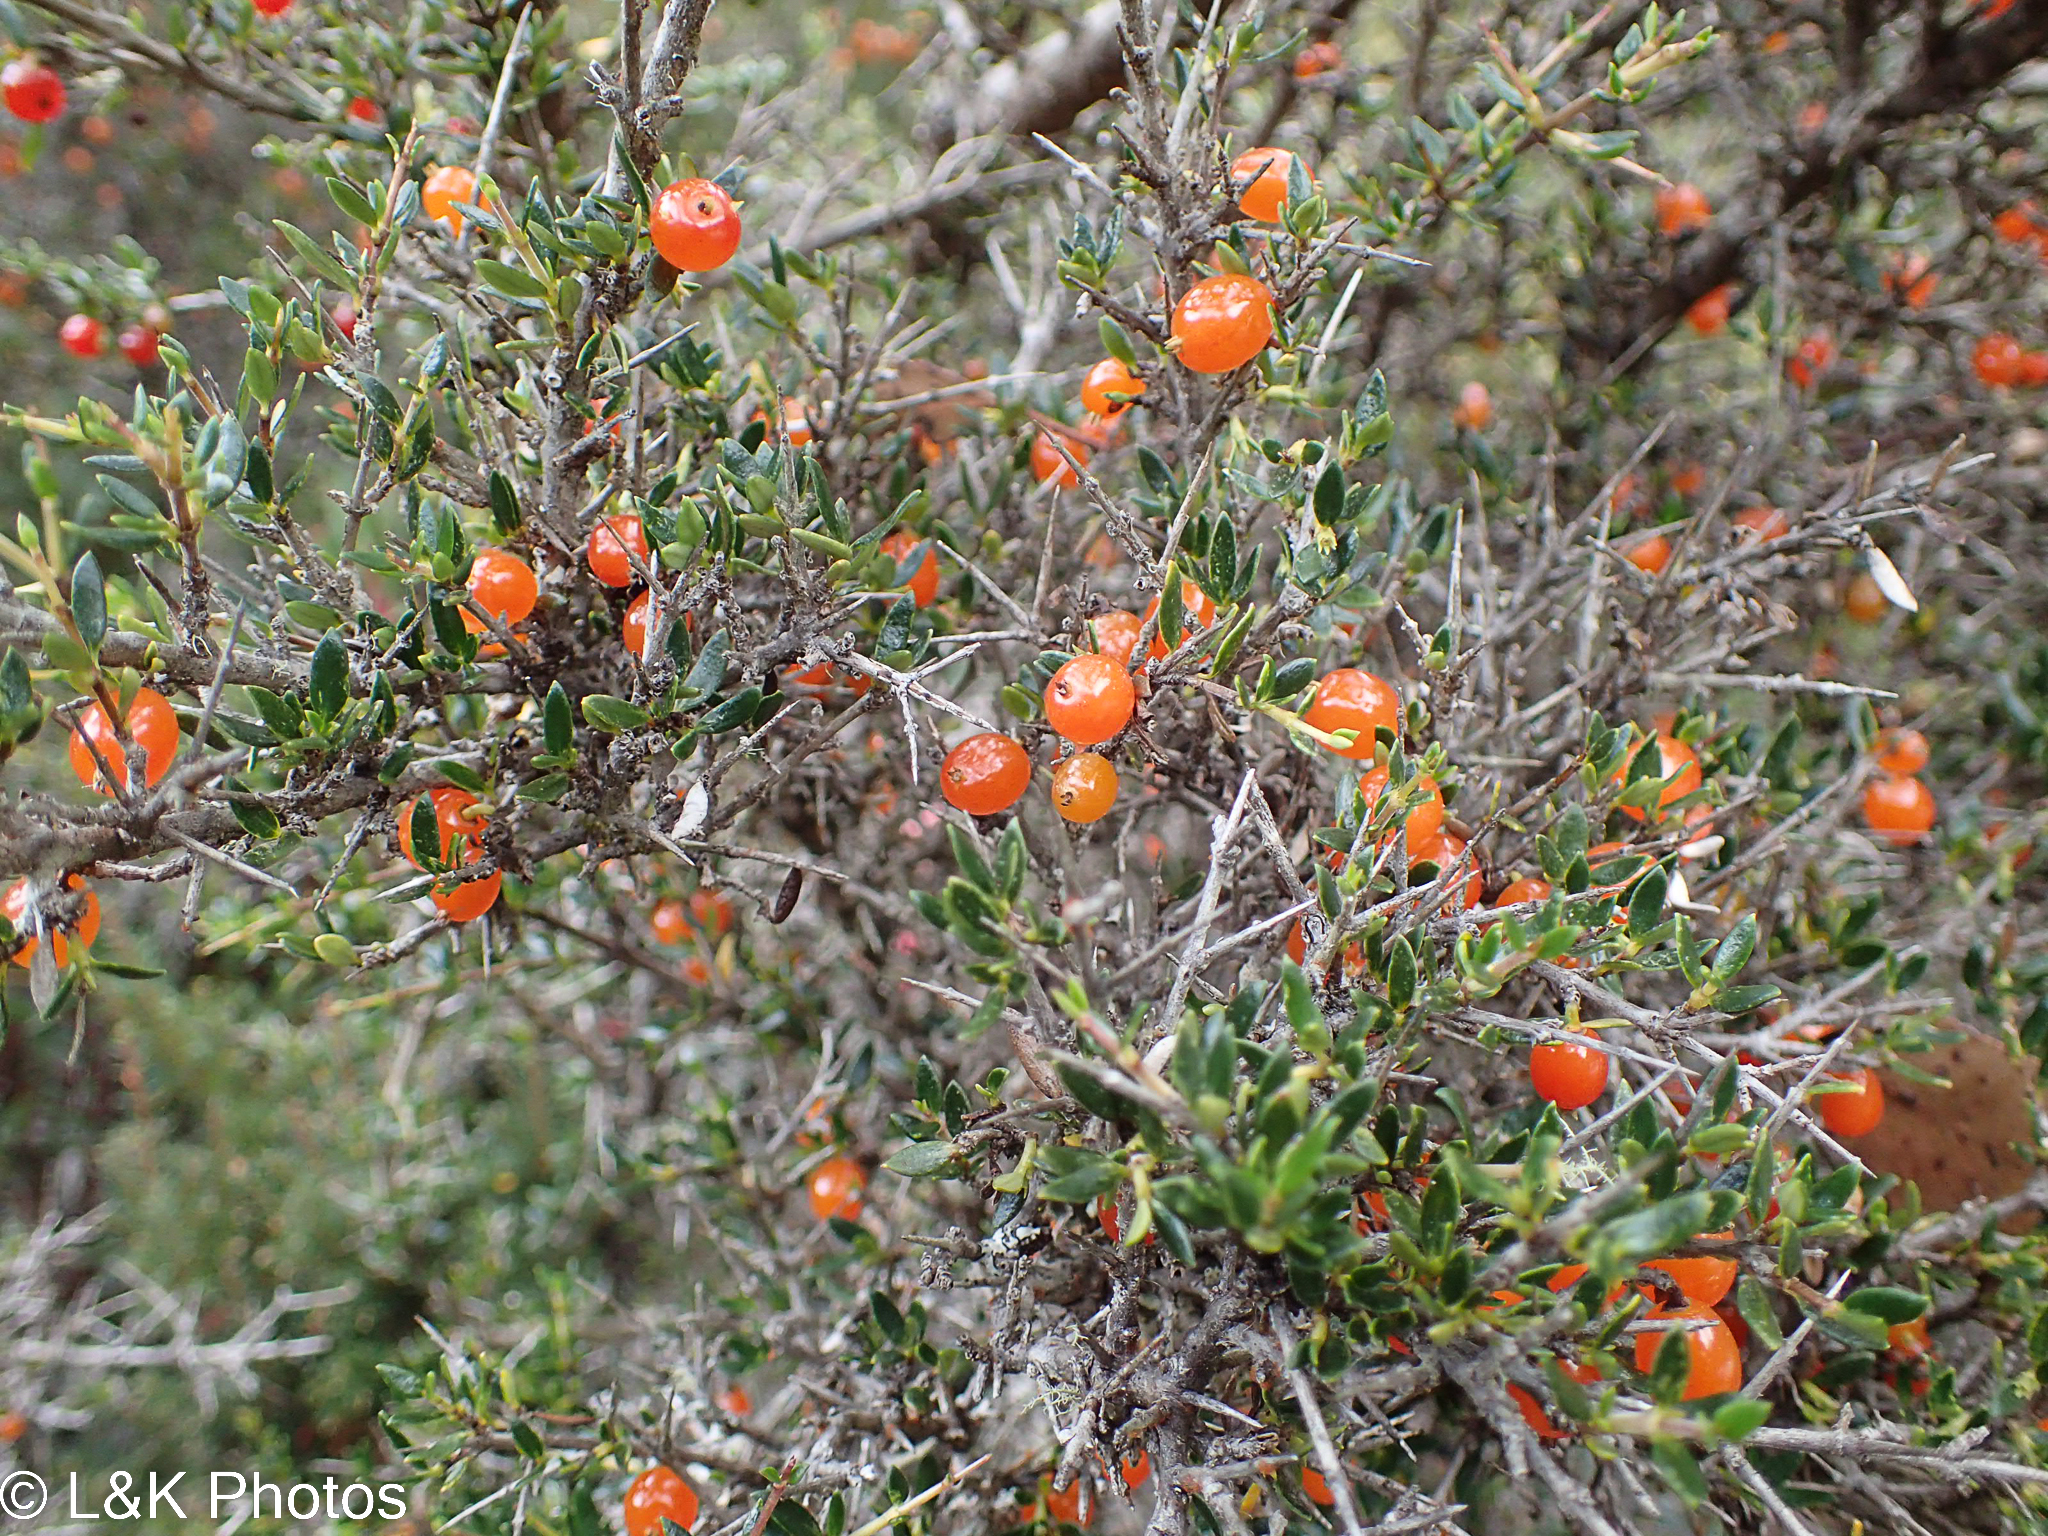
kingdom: Plantae
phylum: Tracheophyta
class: Magnoliopsida
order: Gentianales
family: Rubiaceae
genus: Coprosma
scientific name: Coprosma nitida
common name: Shining coprosma
